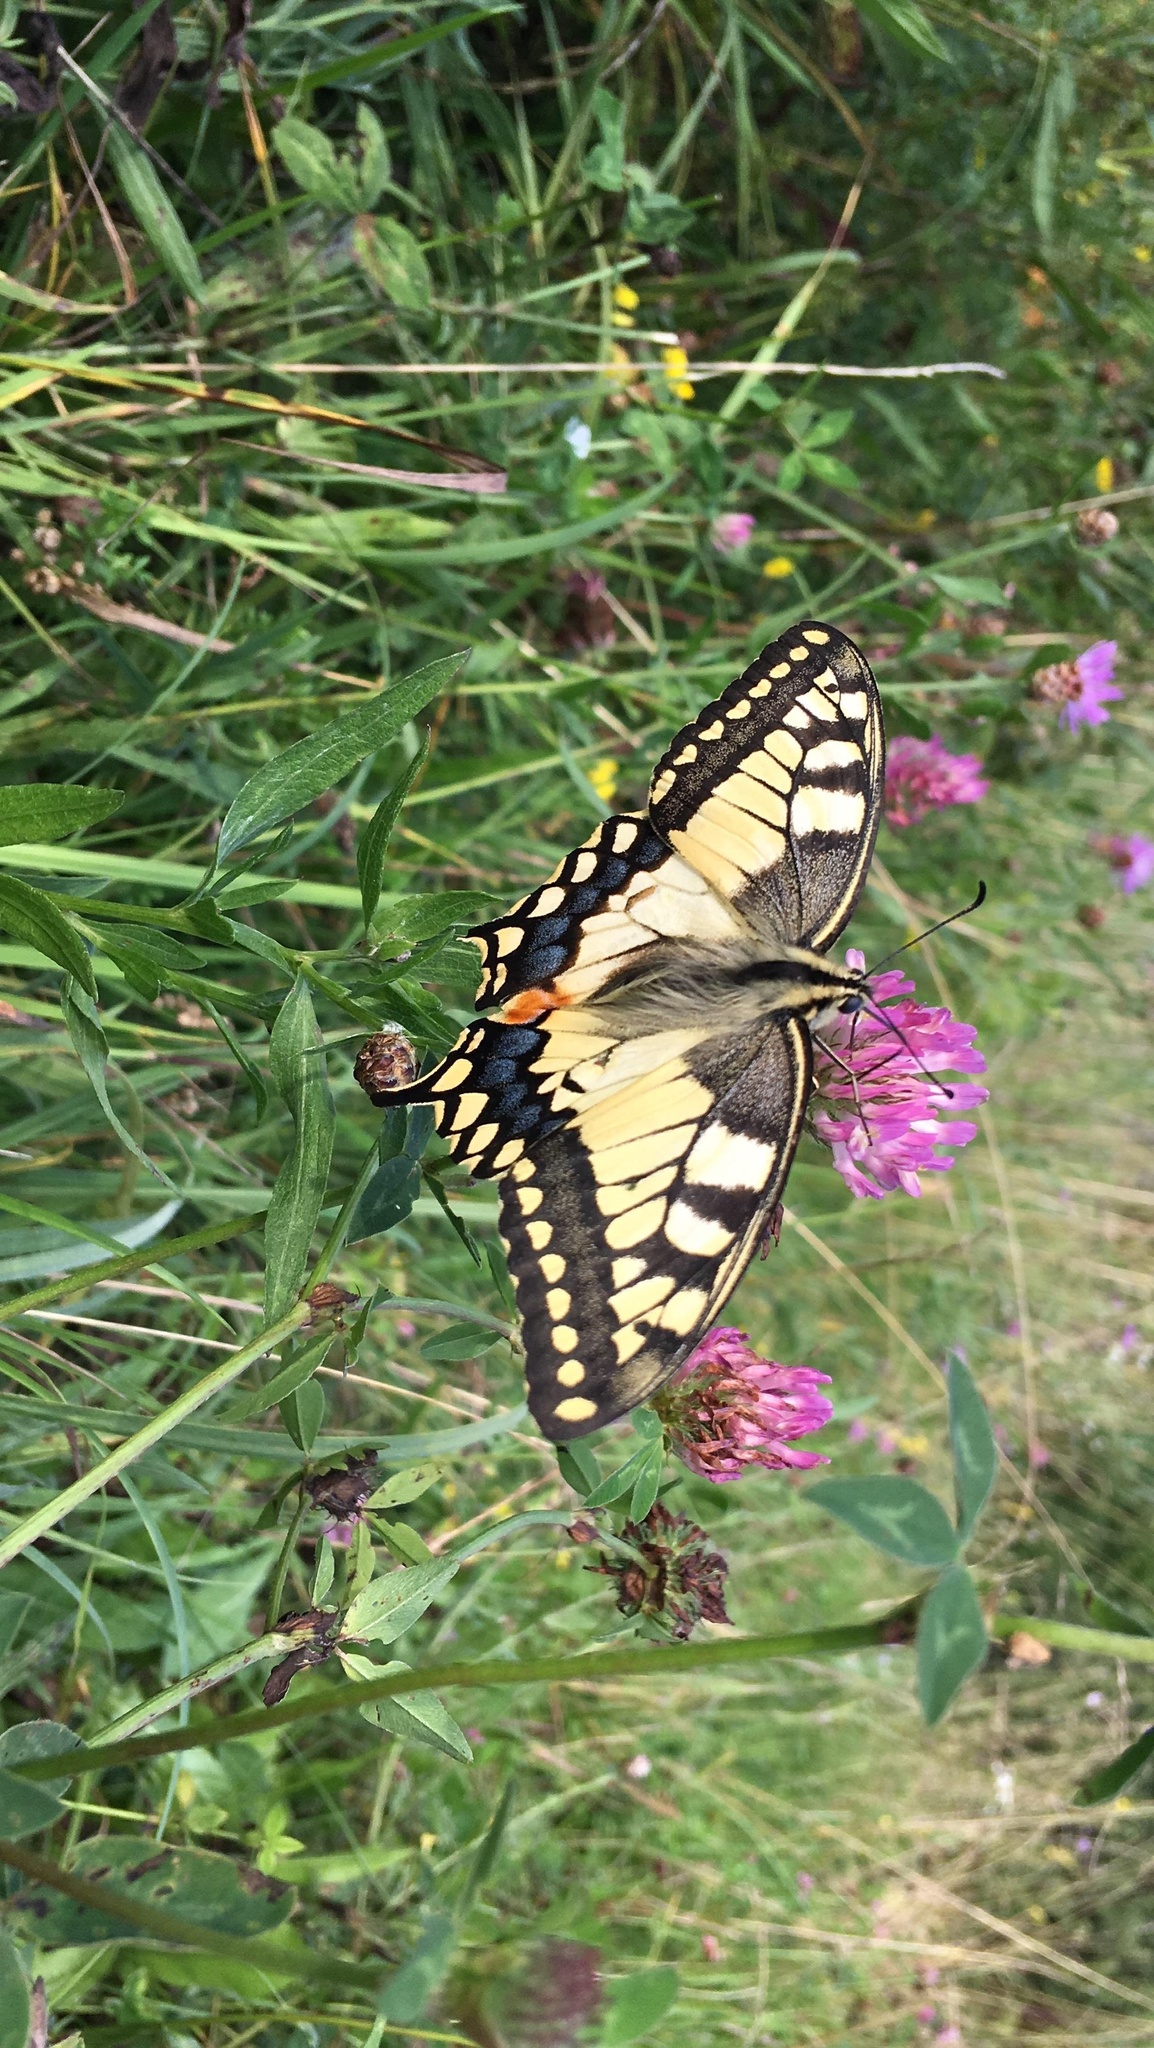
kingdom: Animalia
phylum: Arthropoda
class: Insecta
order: Lepidoptera
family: Papilionidae
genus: Papilio
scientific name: Papilio machaon
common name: Swallowtail
